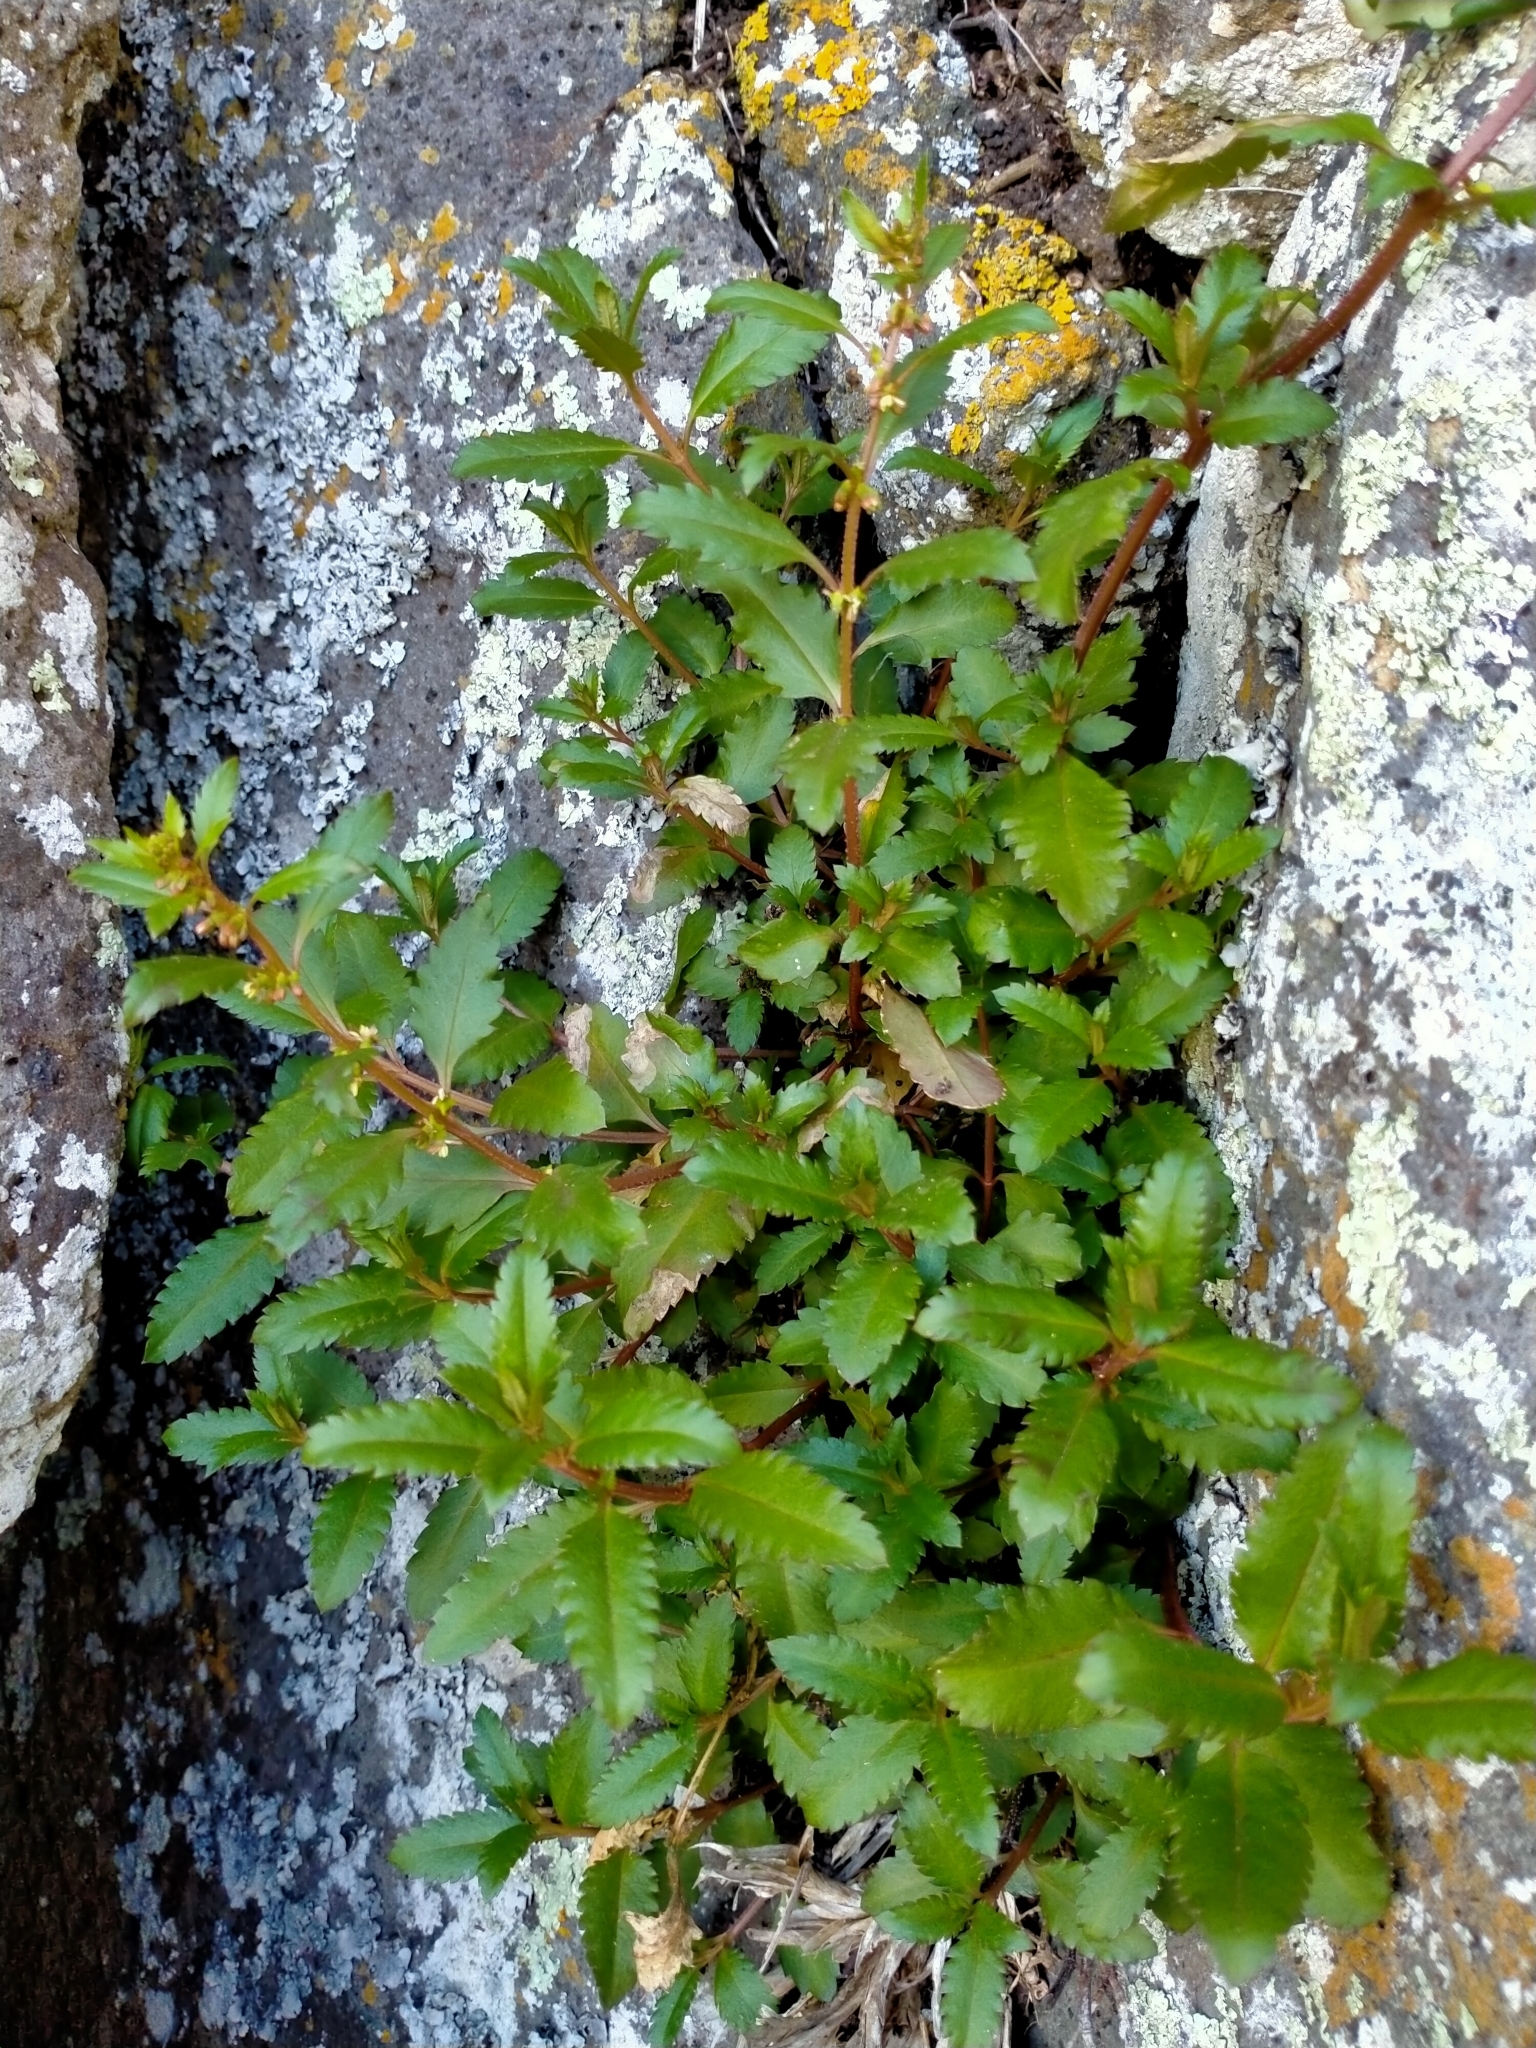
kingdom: Plantae
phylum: Tracheophyta
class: Magnoliopsida
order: Saxifragales
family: Haloragaceae
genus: Haloragis
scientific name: Haloragis erecta
